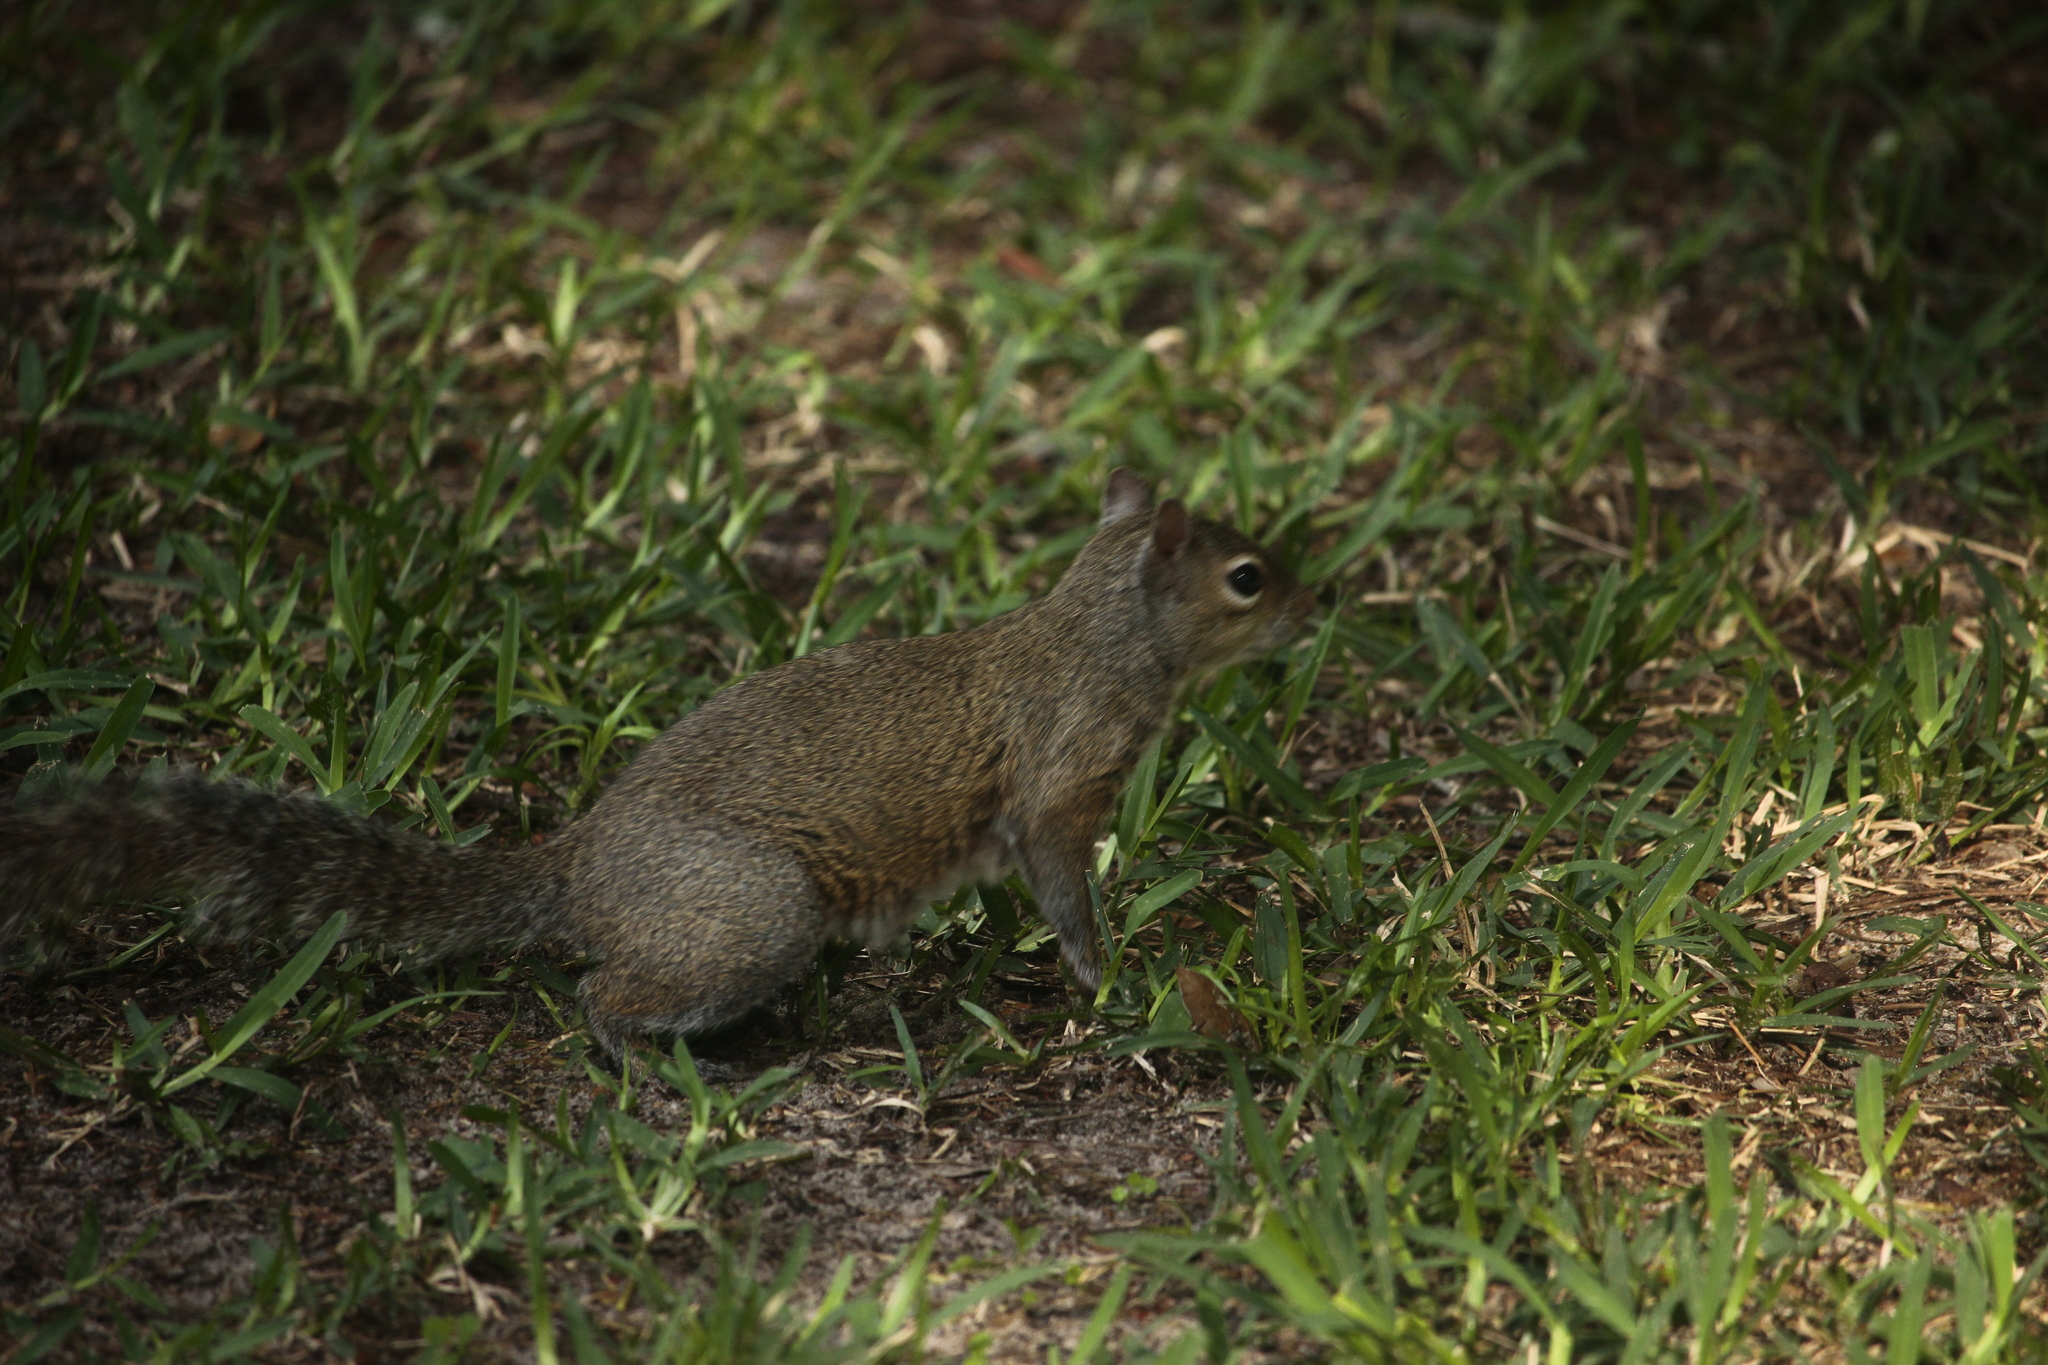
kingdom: Animalia
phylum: Chordata
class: Mammalia
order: Rodentia
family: Sciuridae
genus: Sciurus
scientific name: Sciurus carolinensis
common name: Eastern gray squirrel
